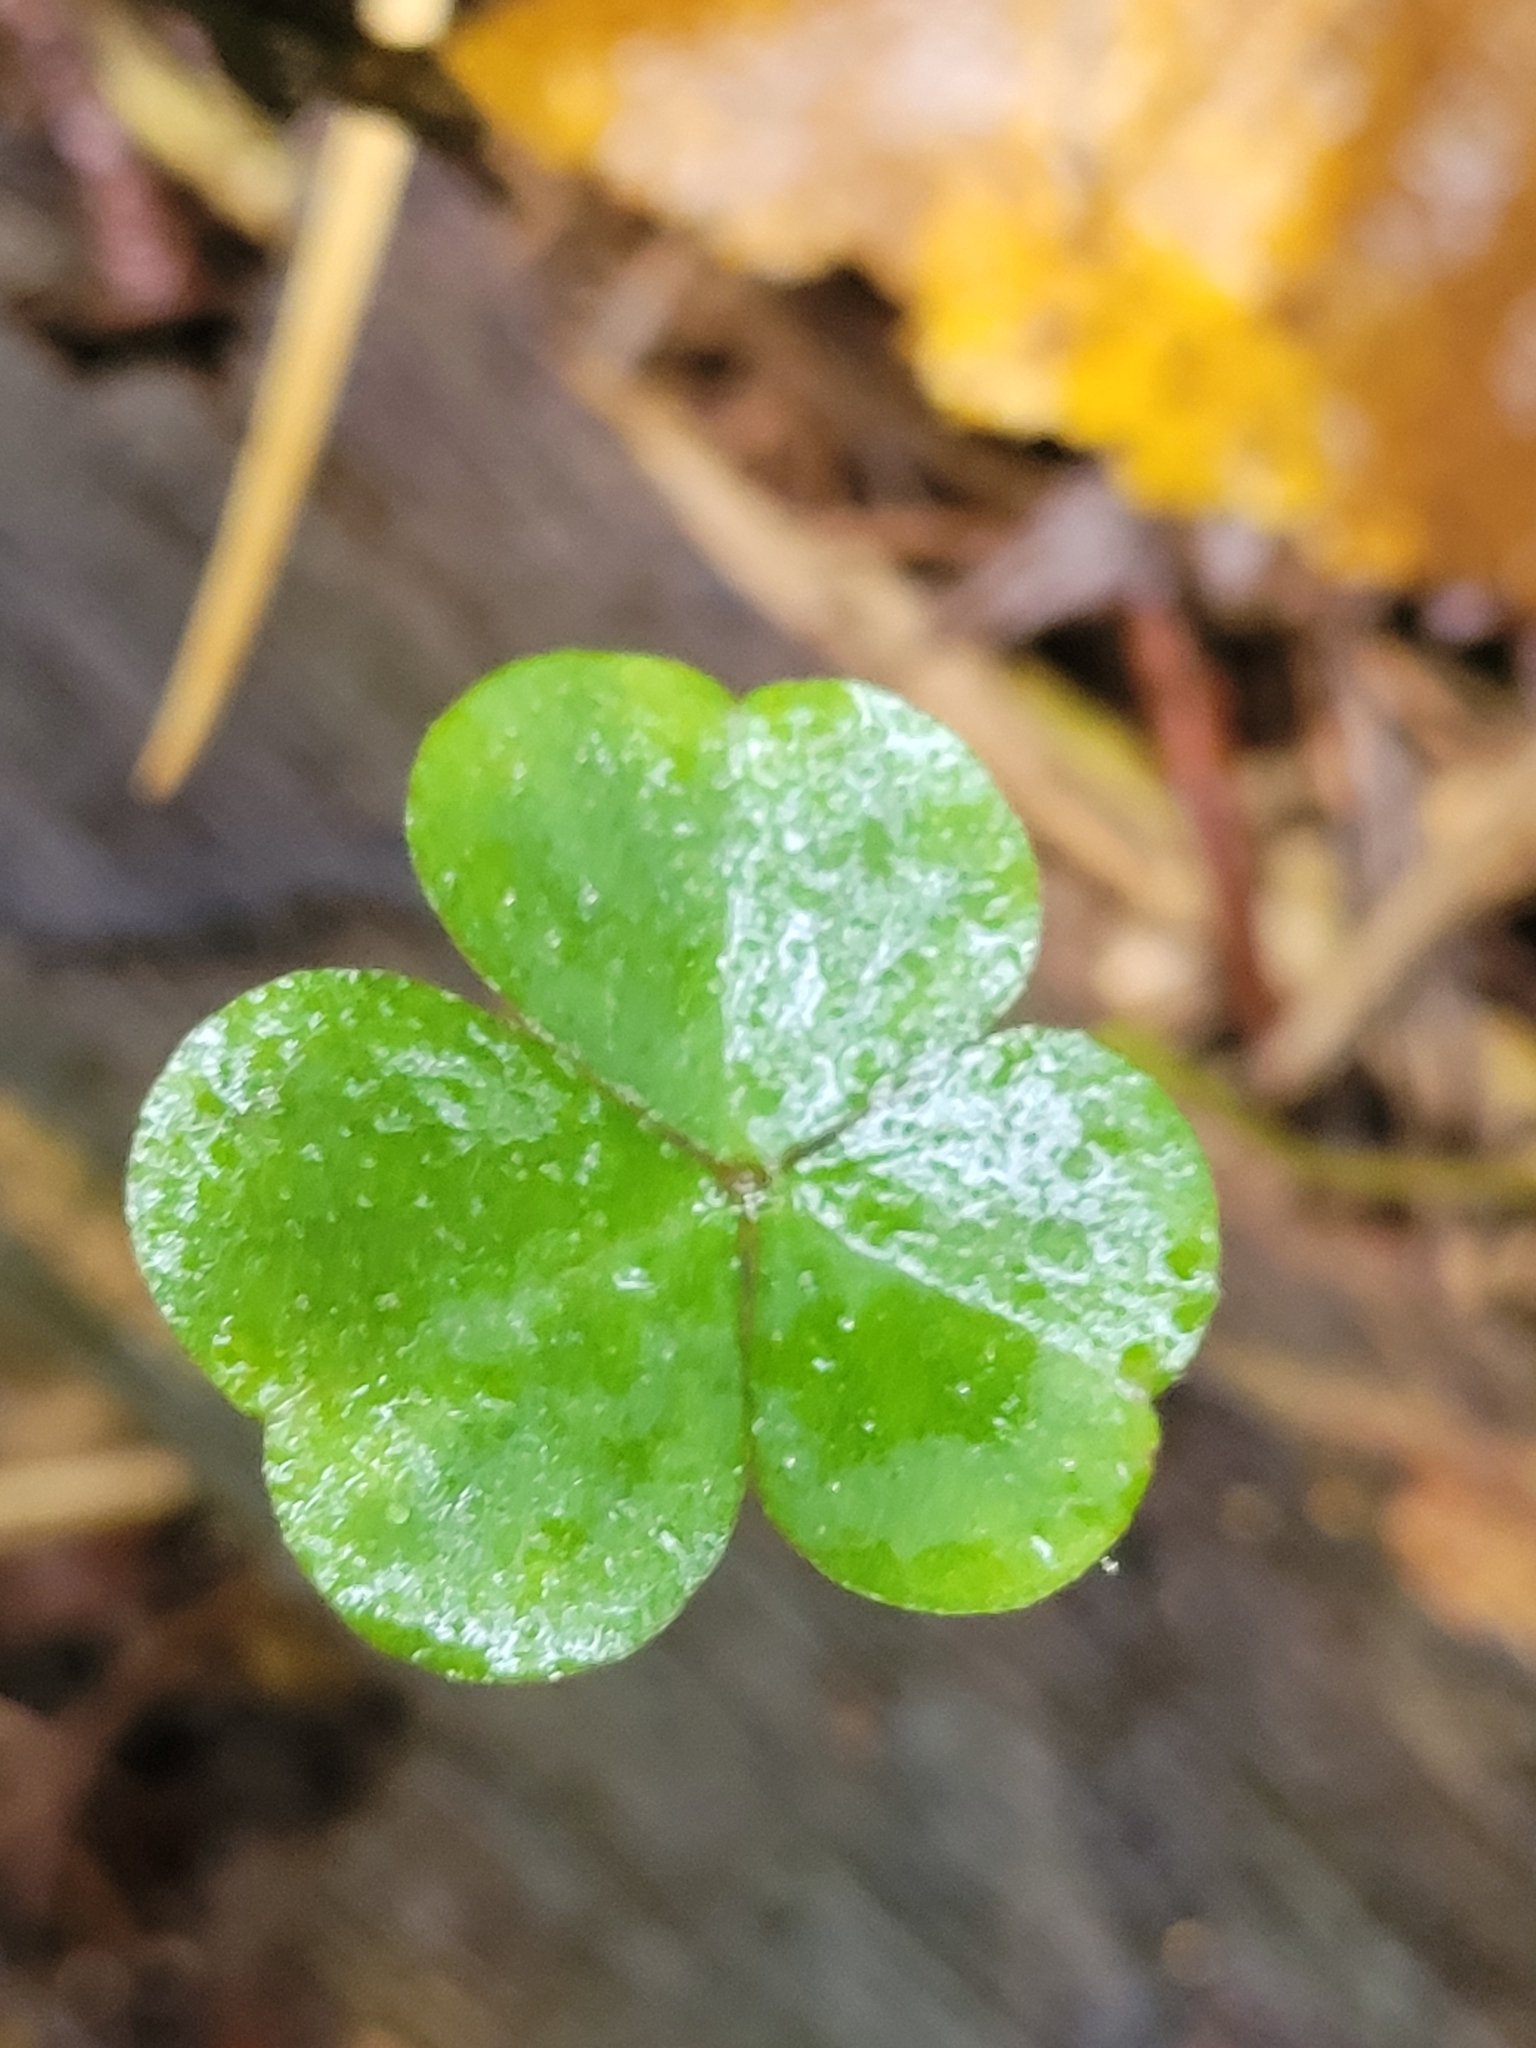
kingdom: Plantae
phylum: Tracheophyta
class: Magnoliopsida
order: Oxalidales
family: Oxalidaceae
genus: Oxalis
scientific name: Oxalis acetosella
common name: Wood-sorrel
